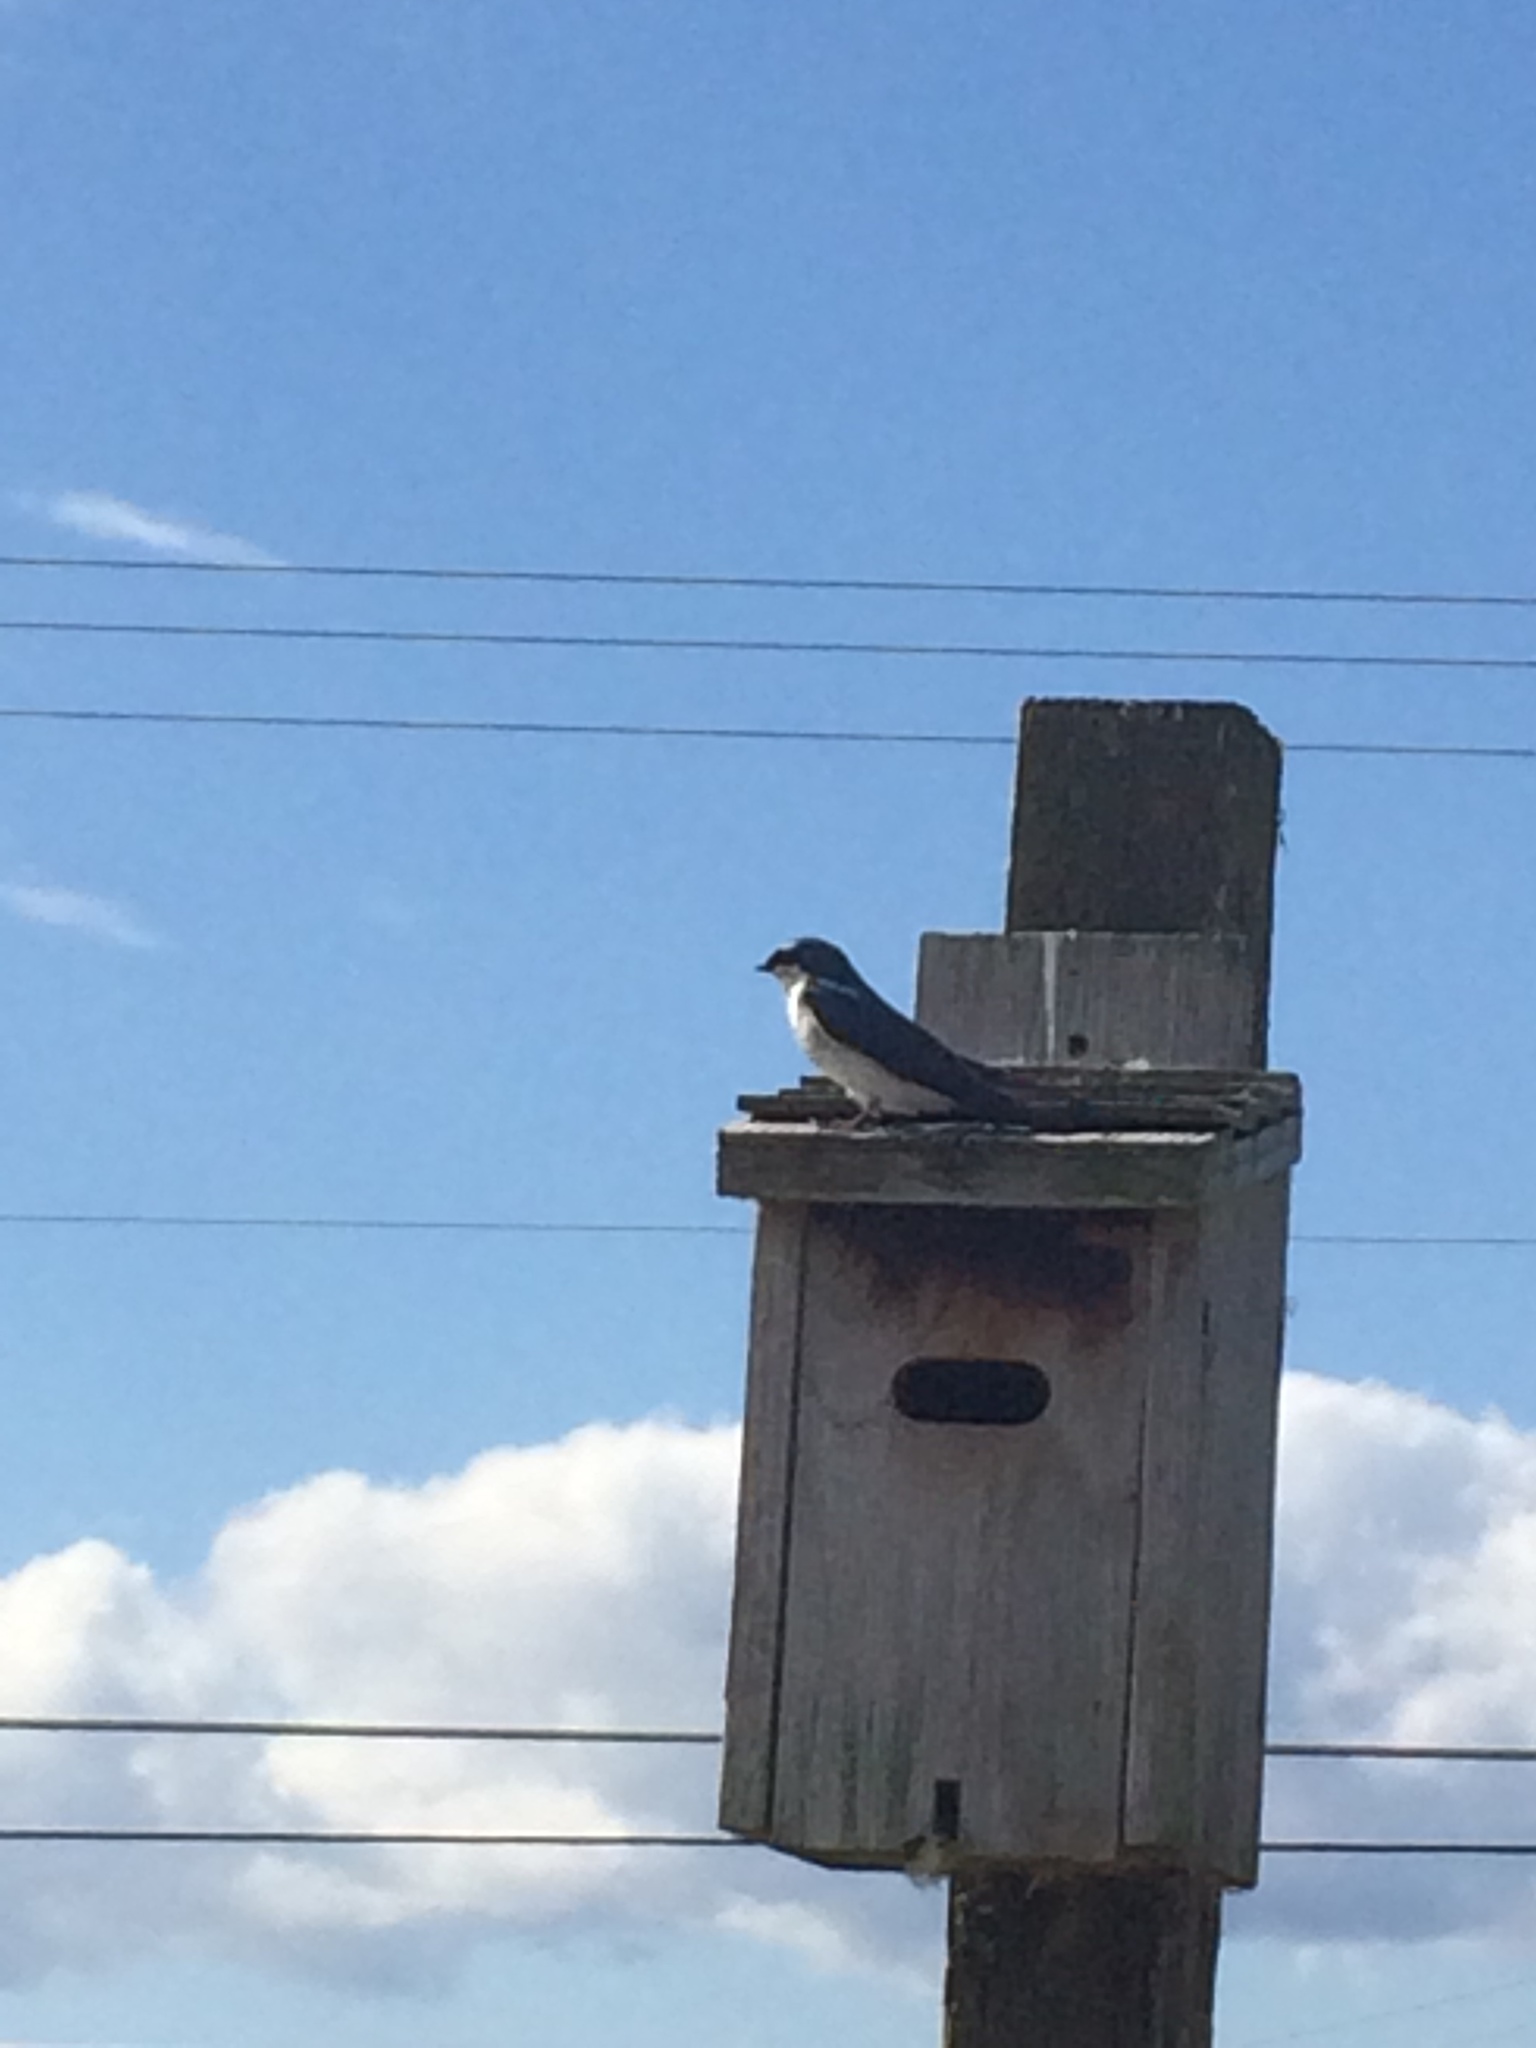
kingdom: Animalia
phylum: Chordata
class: Aves
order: Passeriformes
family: Hirundinidae
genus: Tachycineta
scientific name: Tachycineta bicolor
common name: Tree swallow
